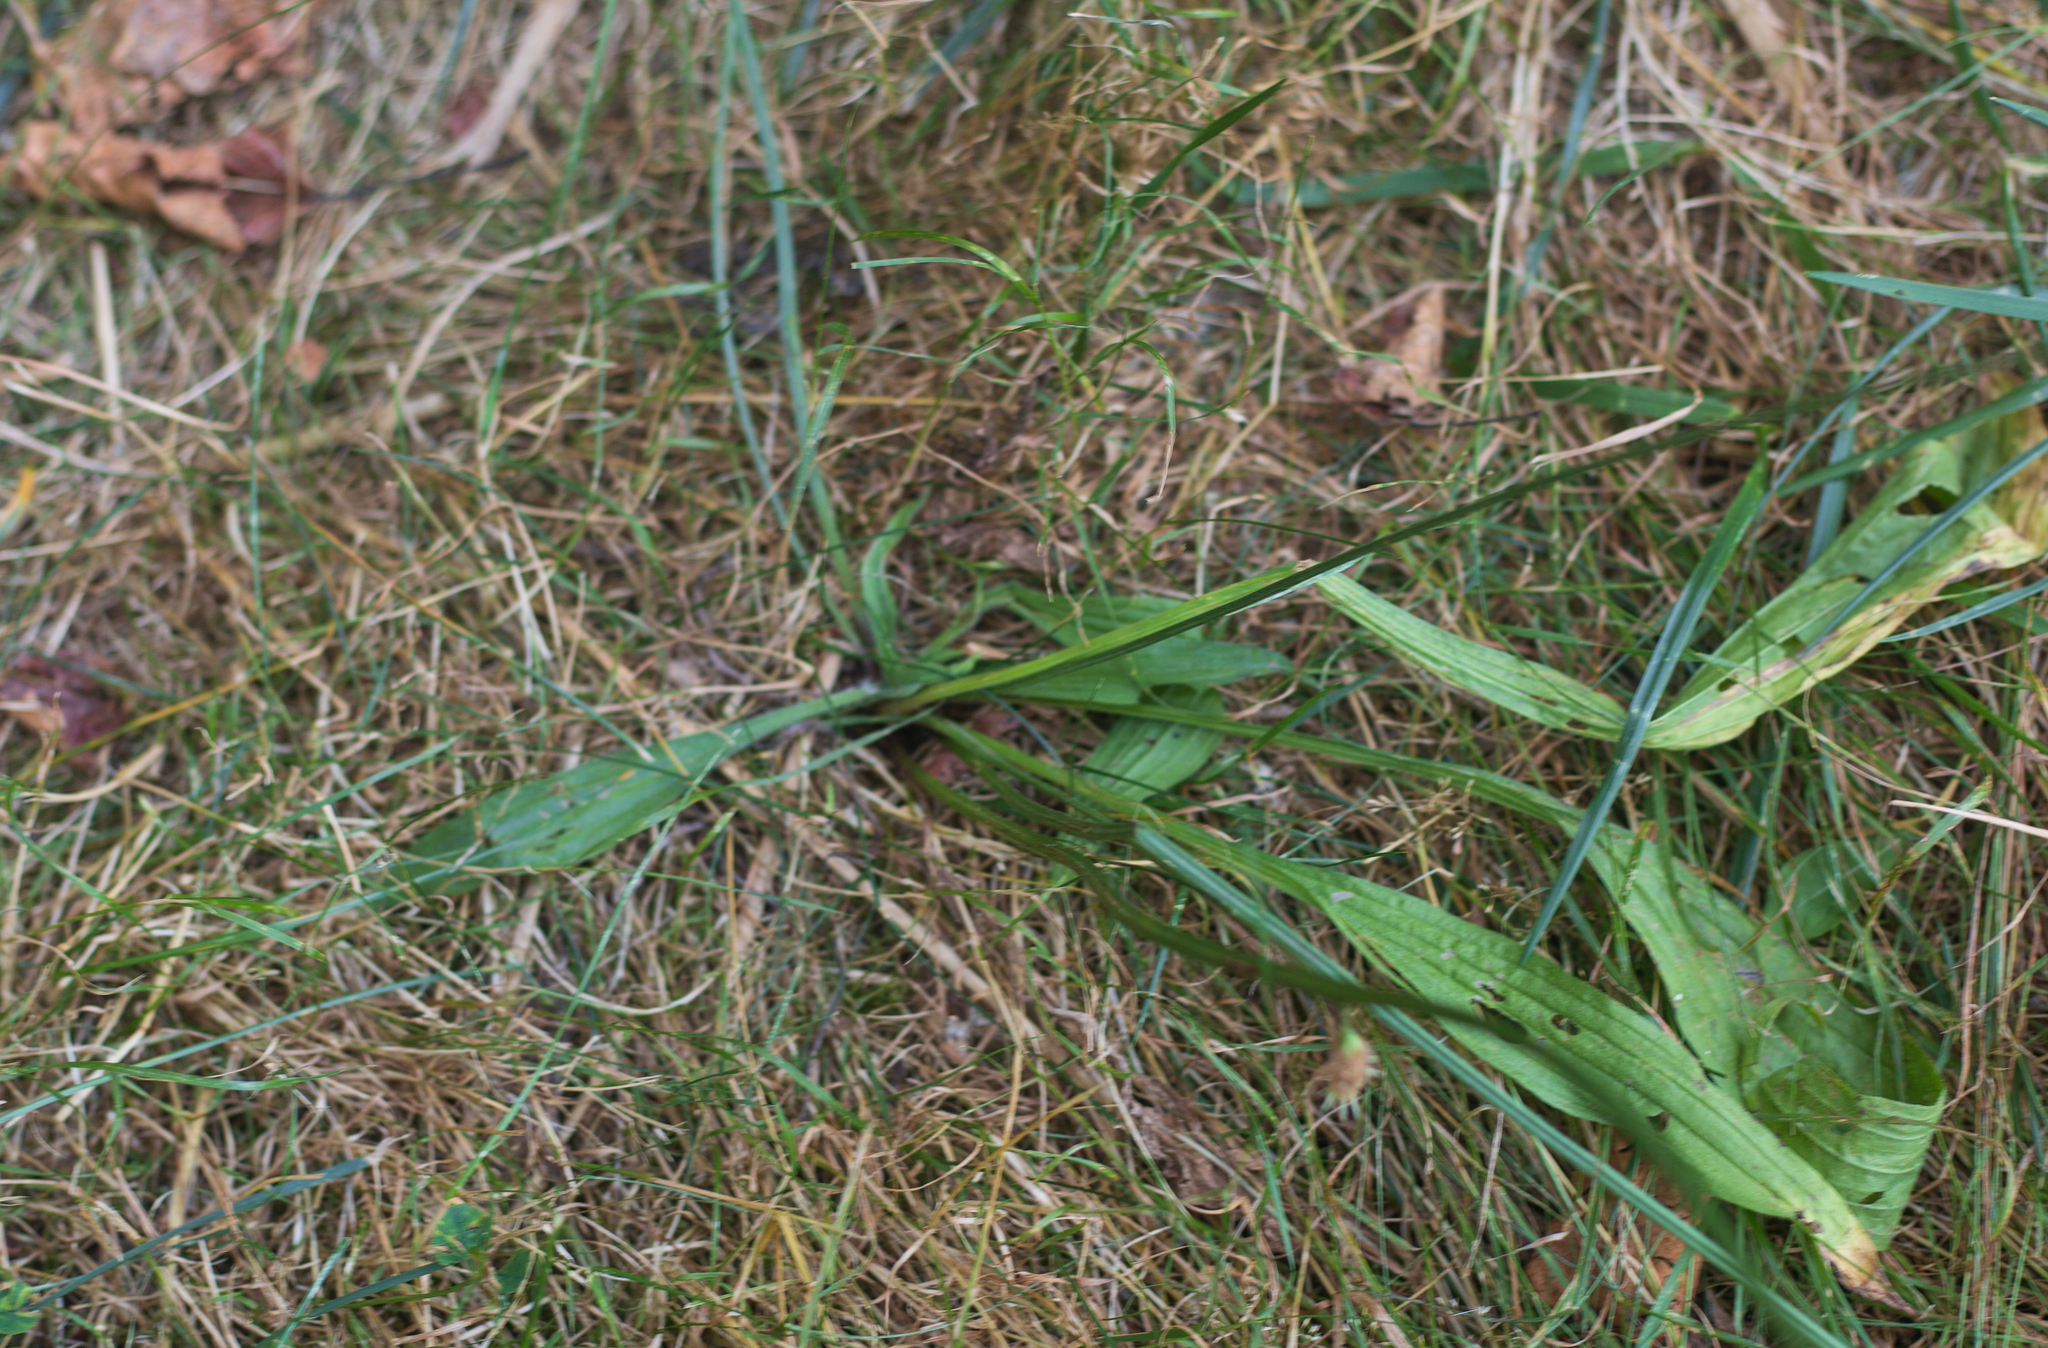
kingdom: Plantae
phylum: Tracheophyta
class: Magnoliopsida
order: Lamiales
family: Plantaginaceae
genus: Plantago
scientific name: Plantago lanceolata
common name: Ribwort plantain
